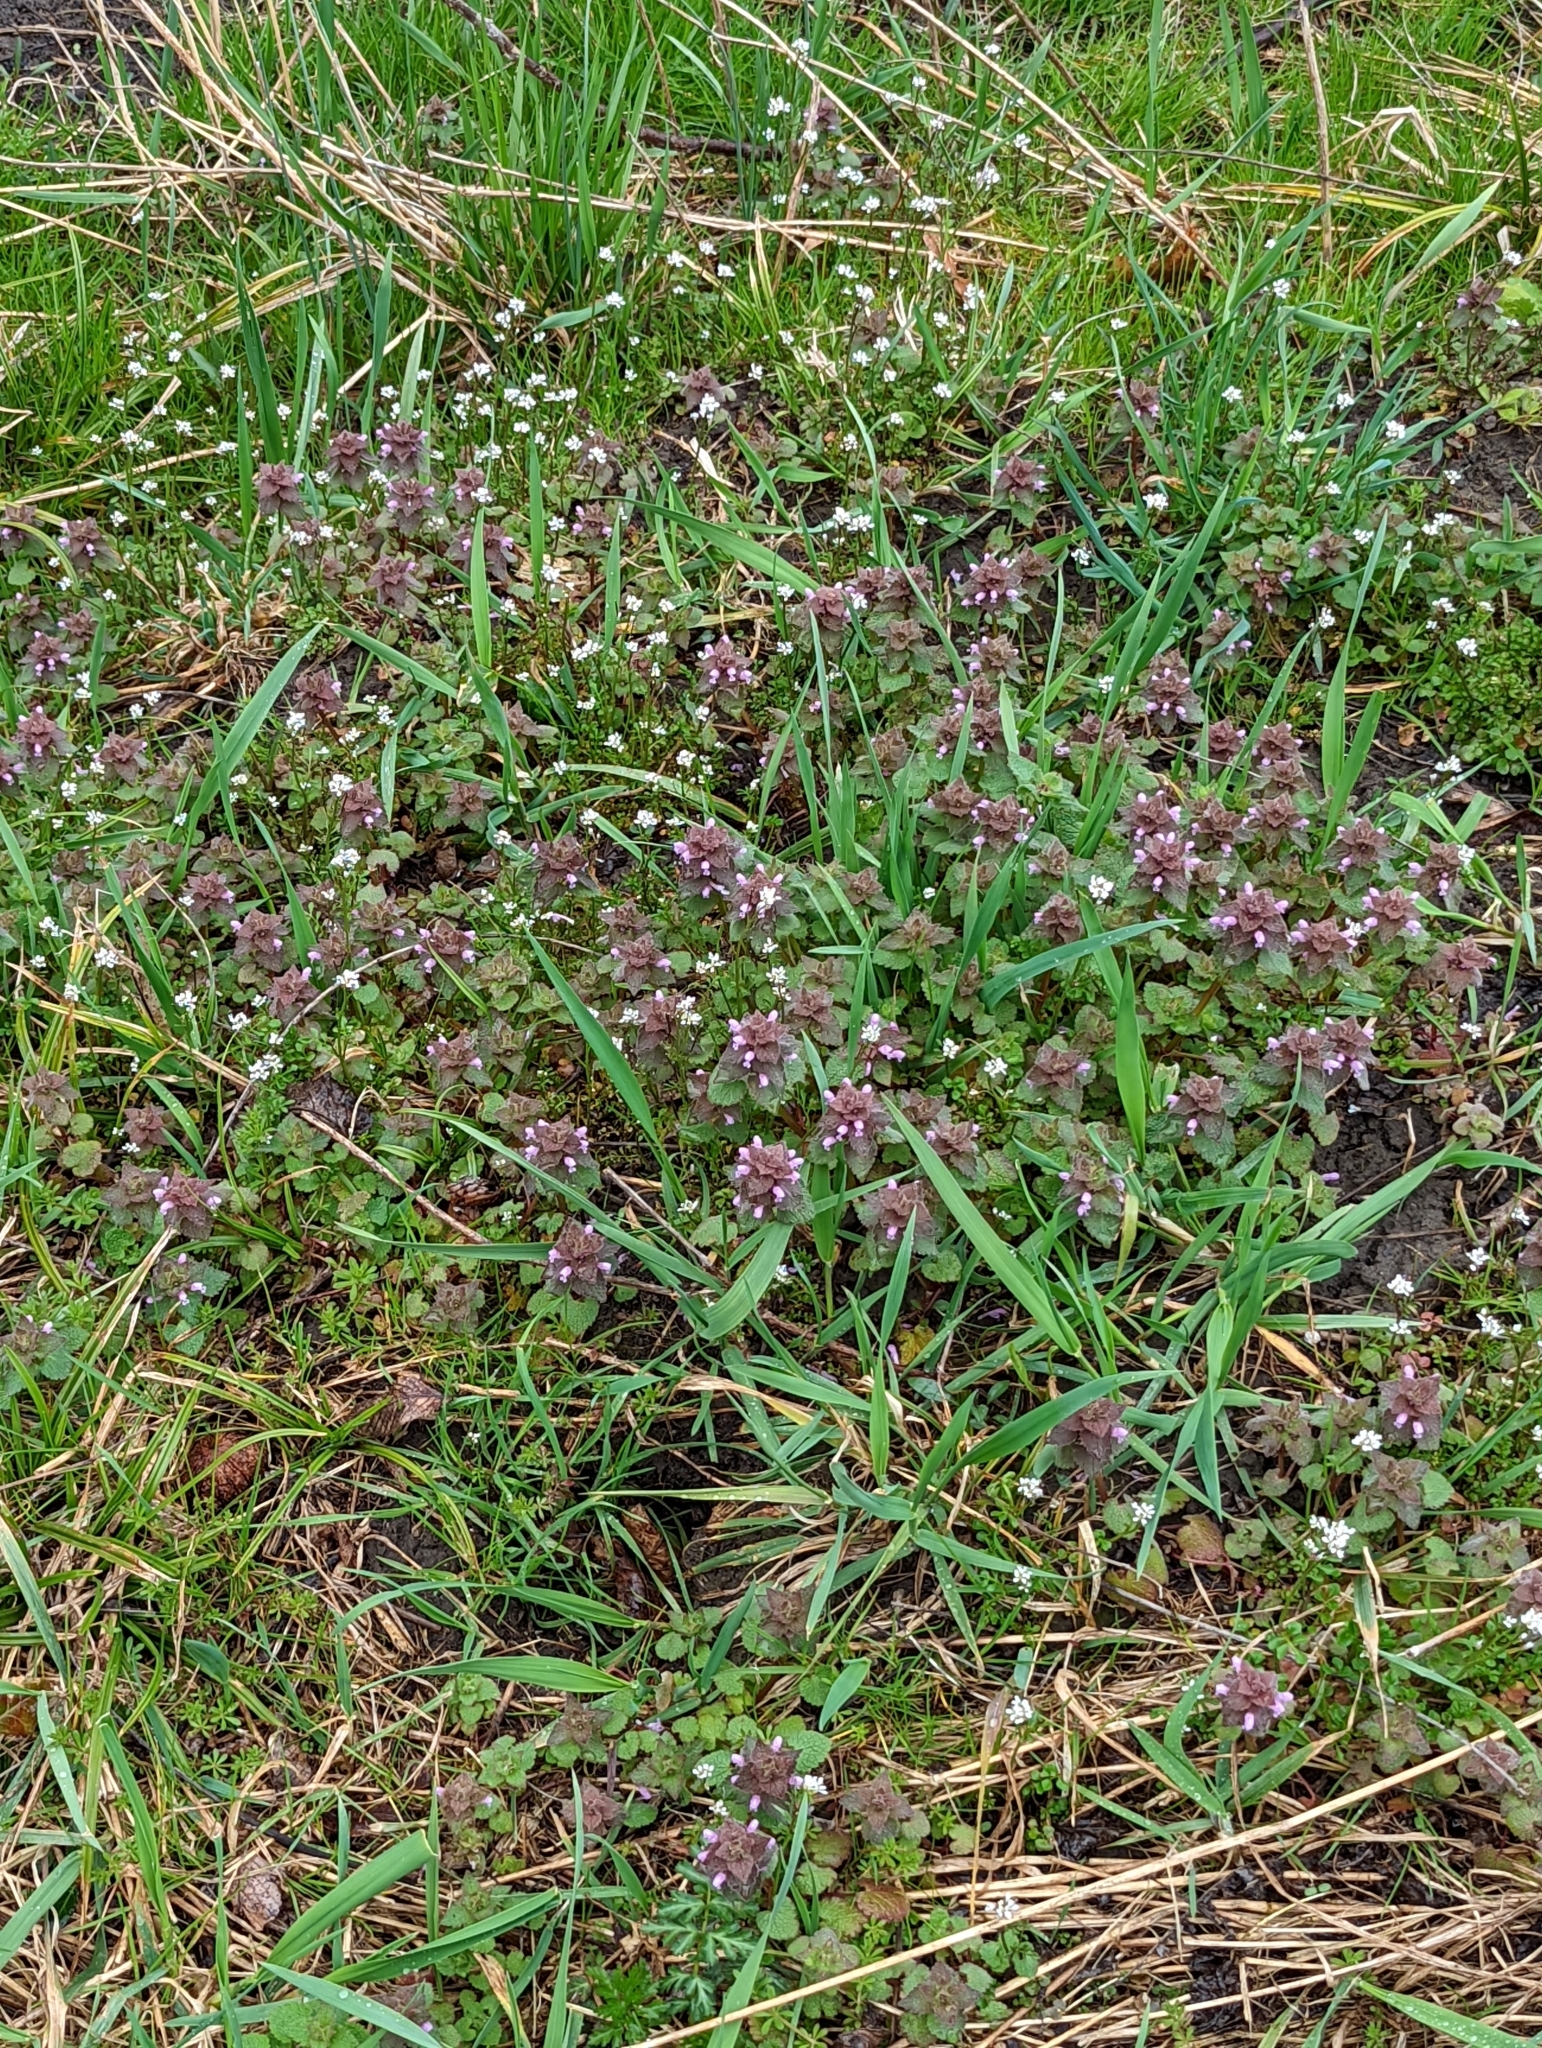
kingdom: Plantae
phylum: Tracheophyta
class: Magnoliopsida
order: Lamiales
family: Lamiaceae
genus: Lamium
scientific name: Lamium purpureum
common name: Red dead-nettle
